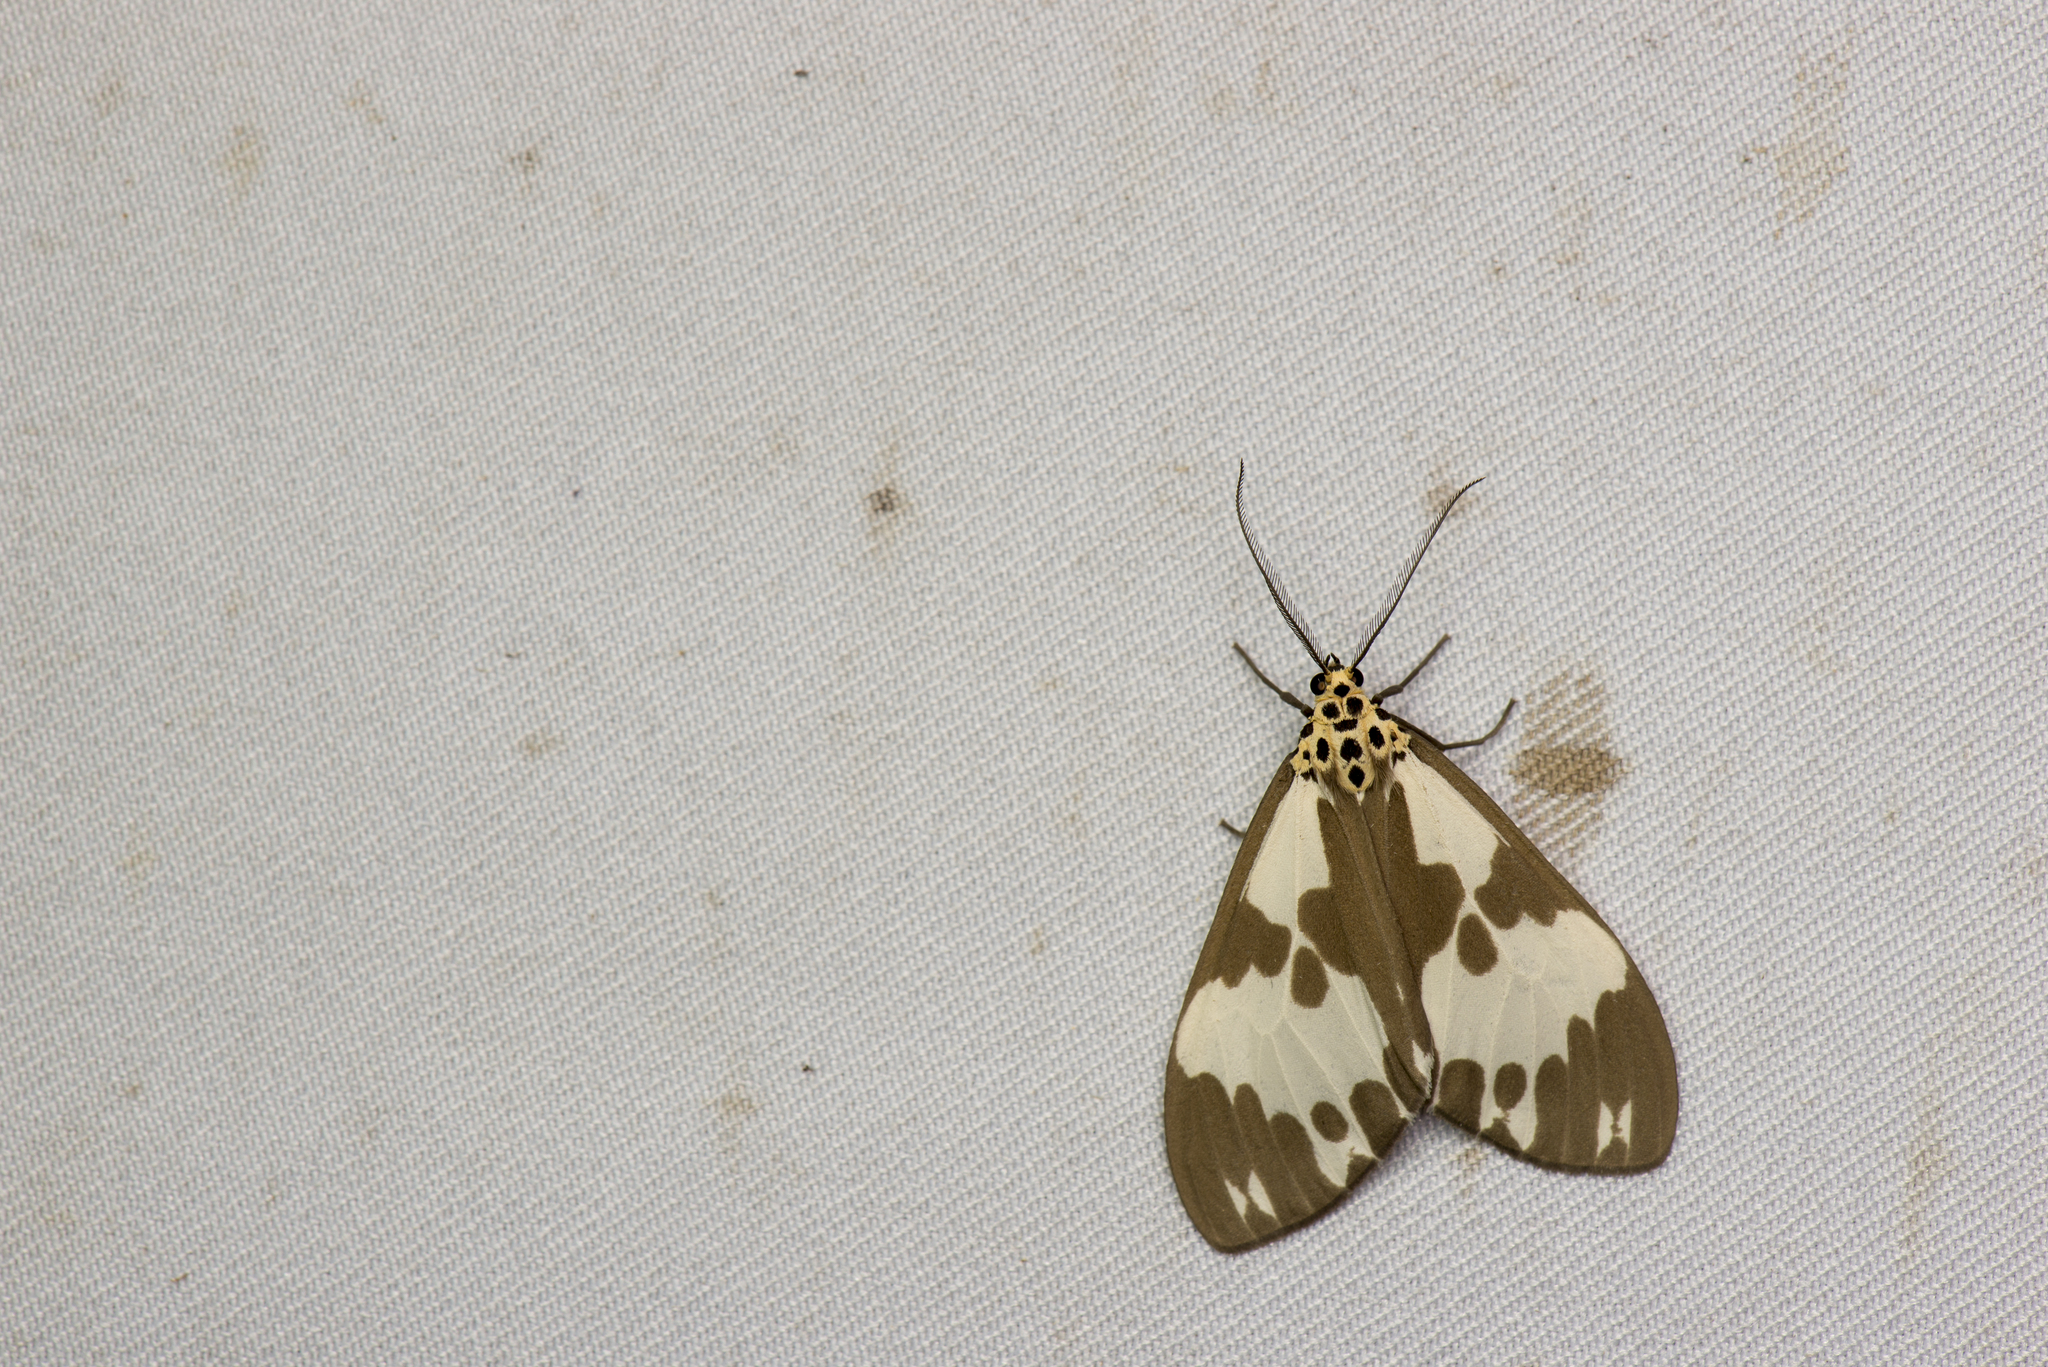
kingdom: Animalia
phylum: Arthropoda
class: Insecta
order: Lepidoptera
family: Erebidae
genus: Nyctemera
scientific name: Nyctemera carissima
